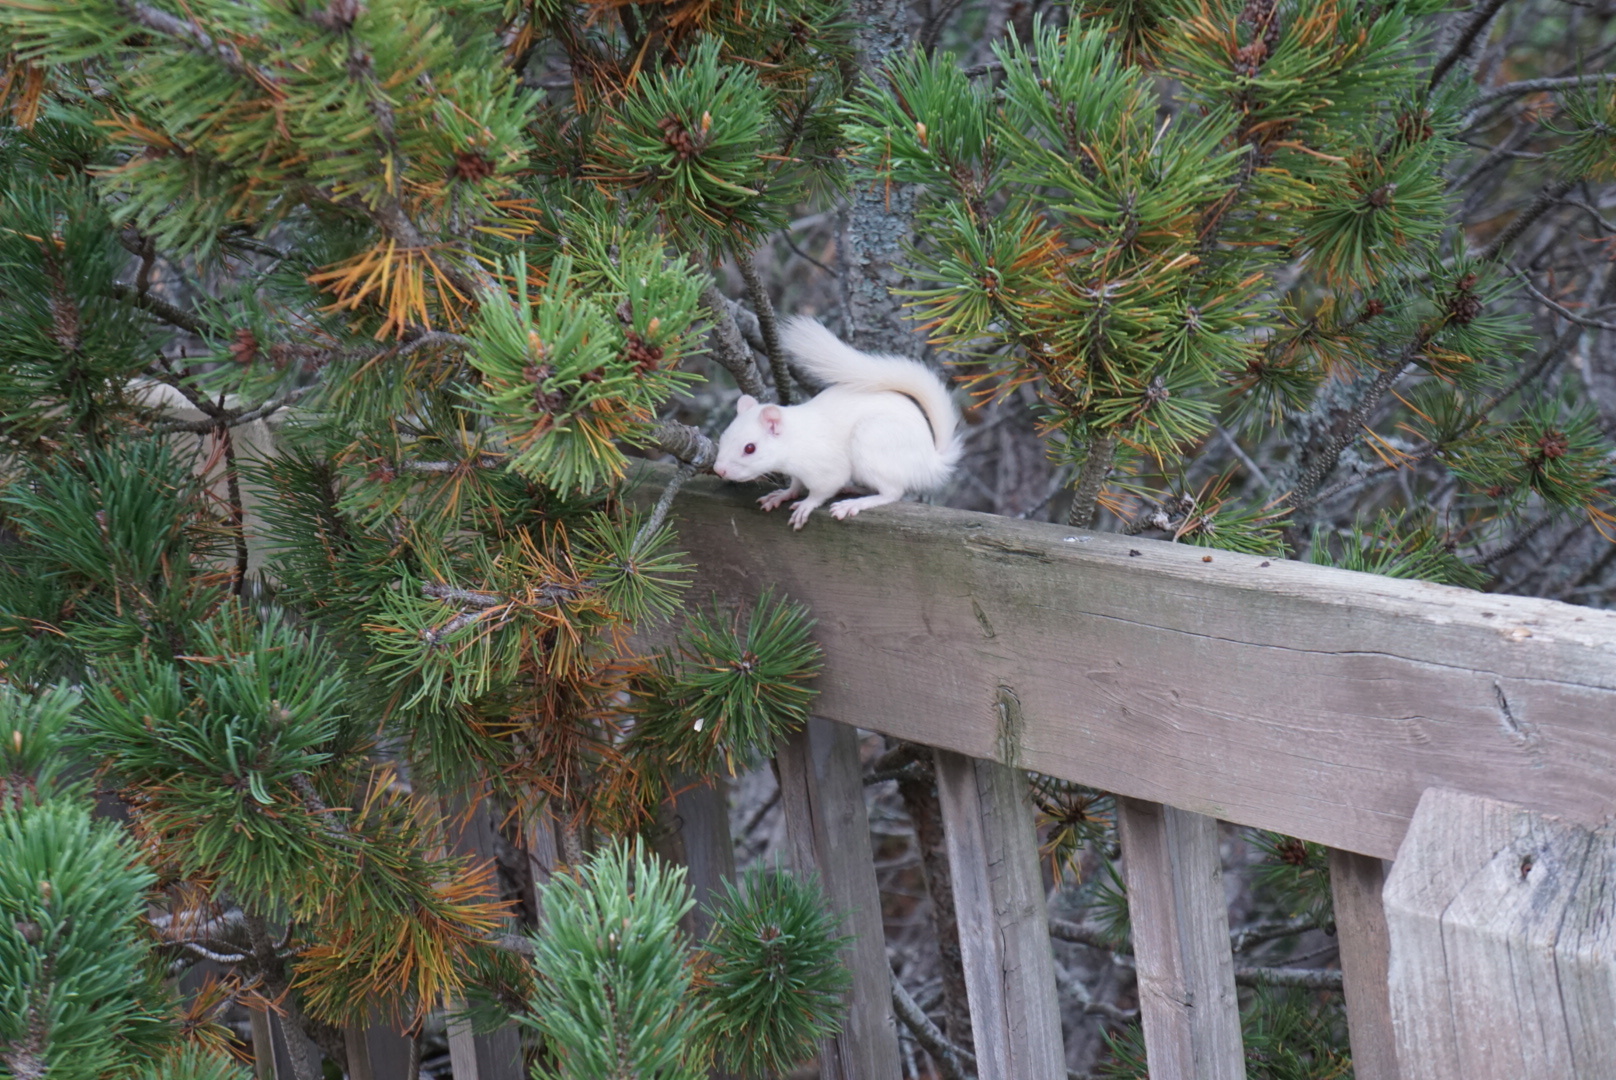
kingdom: Animalia
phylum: Chordata
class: Mammalia
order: Rodentia
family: Sciuridae
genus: Tamiasciurus
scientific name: Tamiasciurus hudsonicus
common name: Red squirrel
